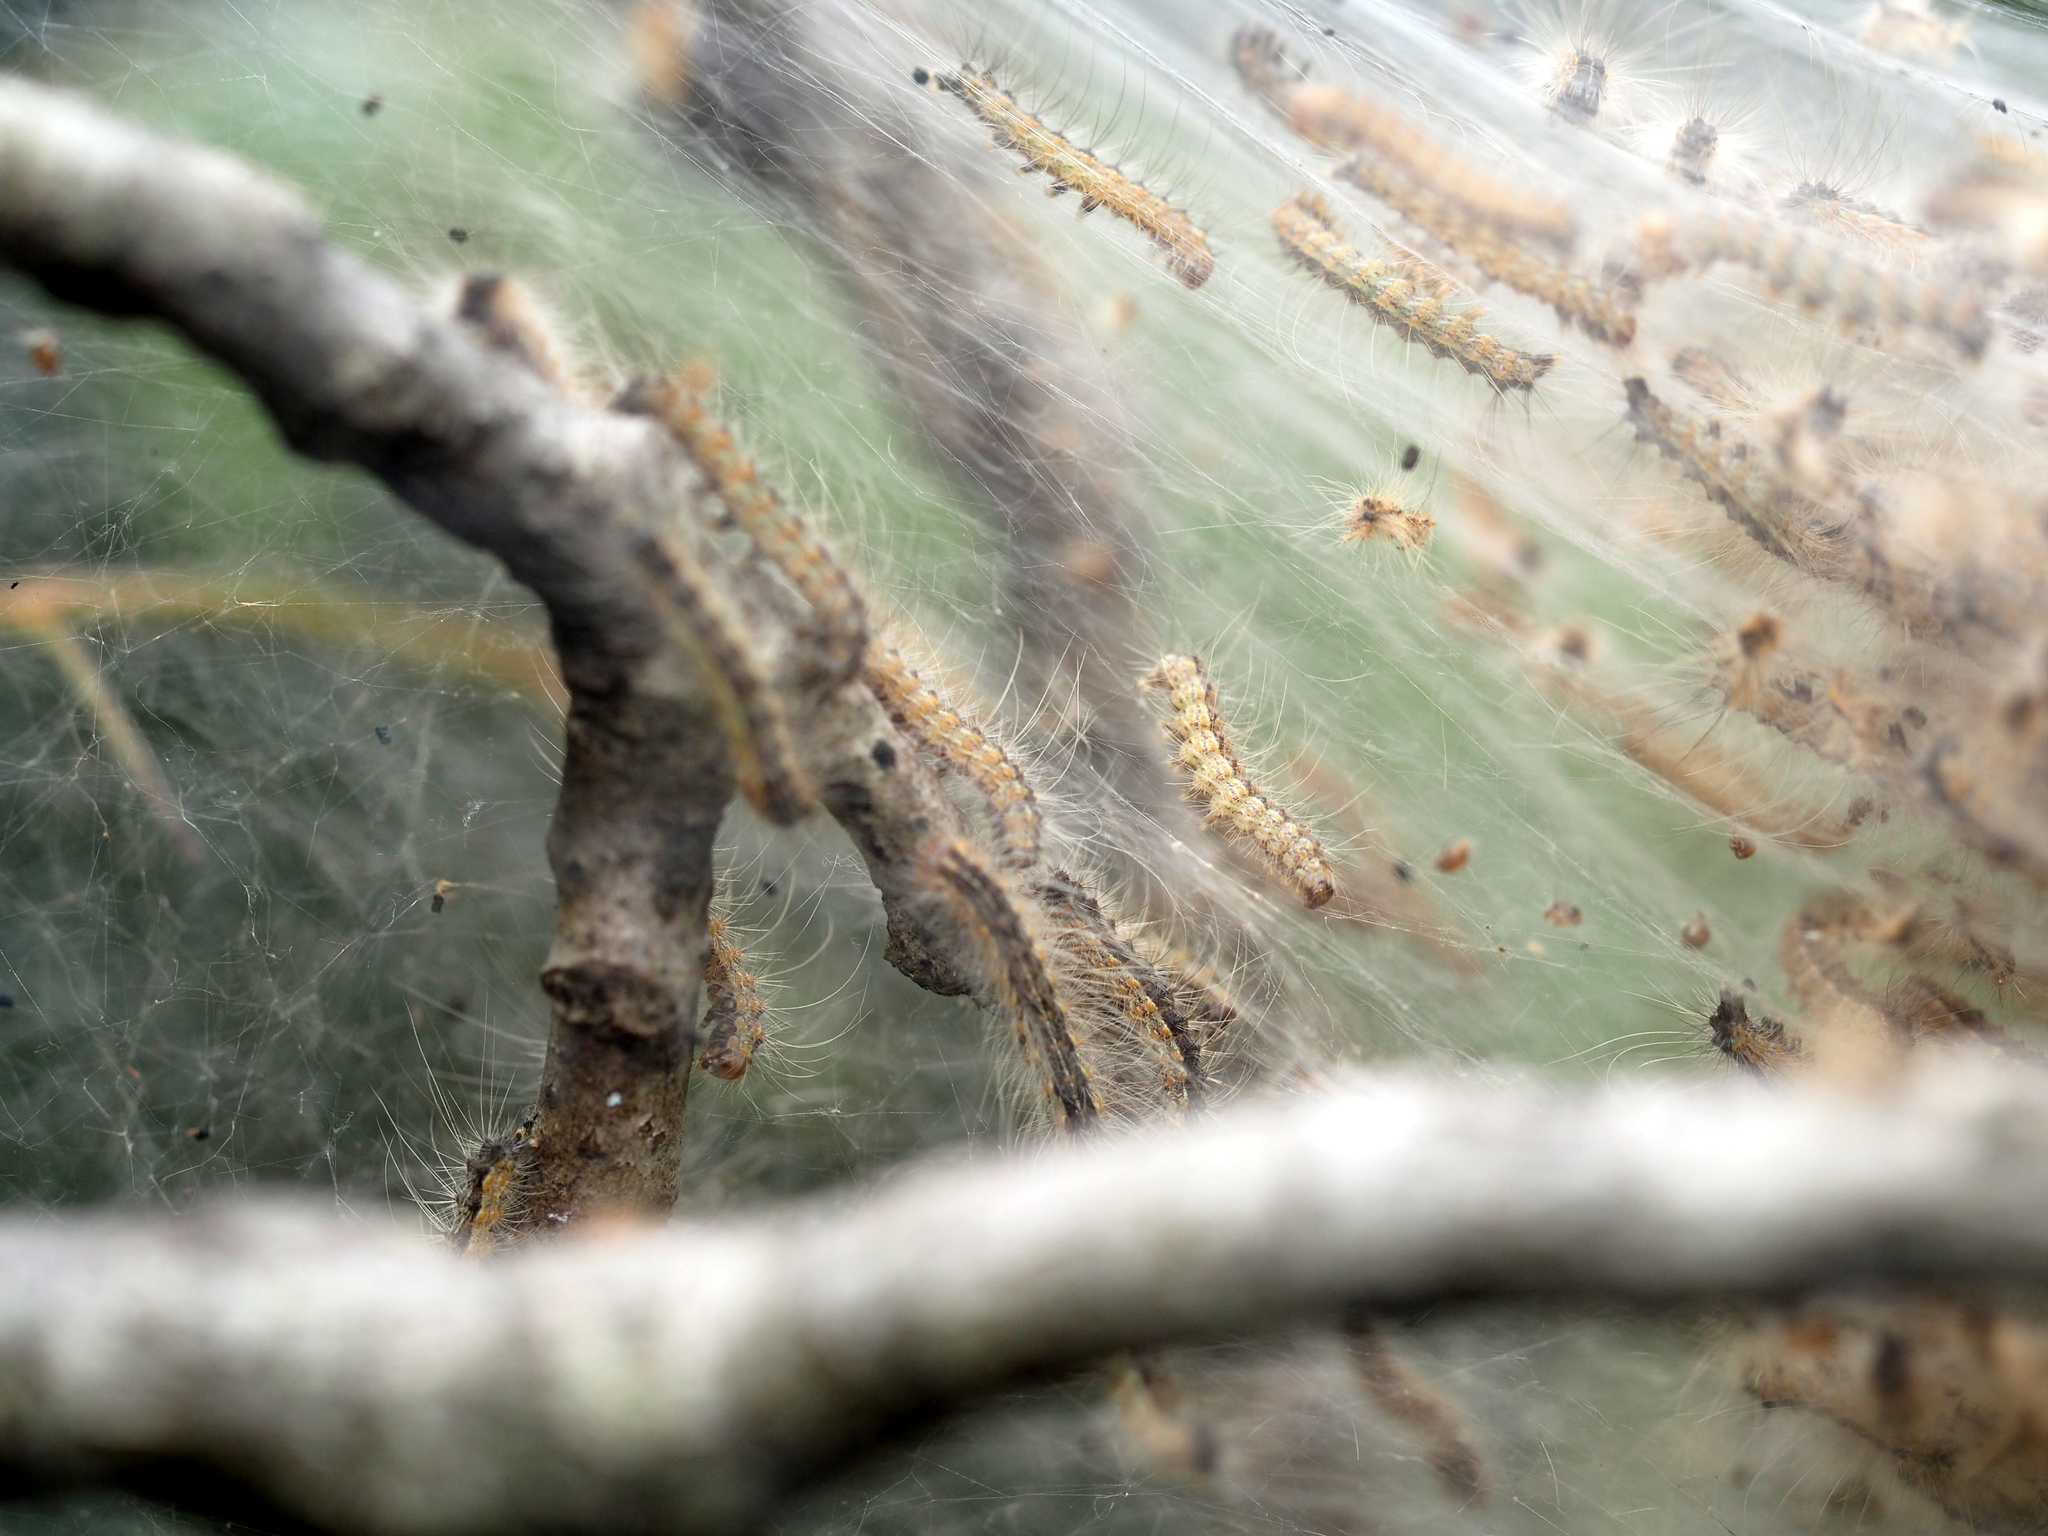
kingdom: Animalia
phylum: Arthropoda
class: Insecta
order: Lepidoptera
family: Erebidae
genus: Hyphantria
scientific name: Hyphantria cunea
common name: American white moth
